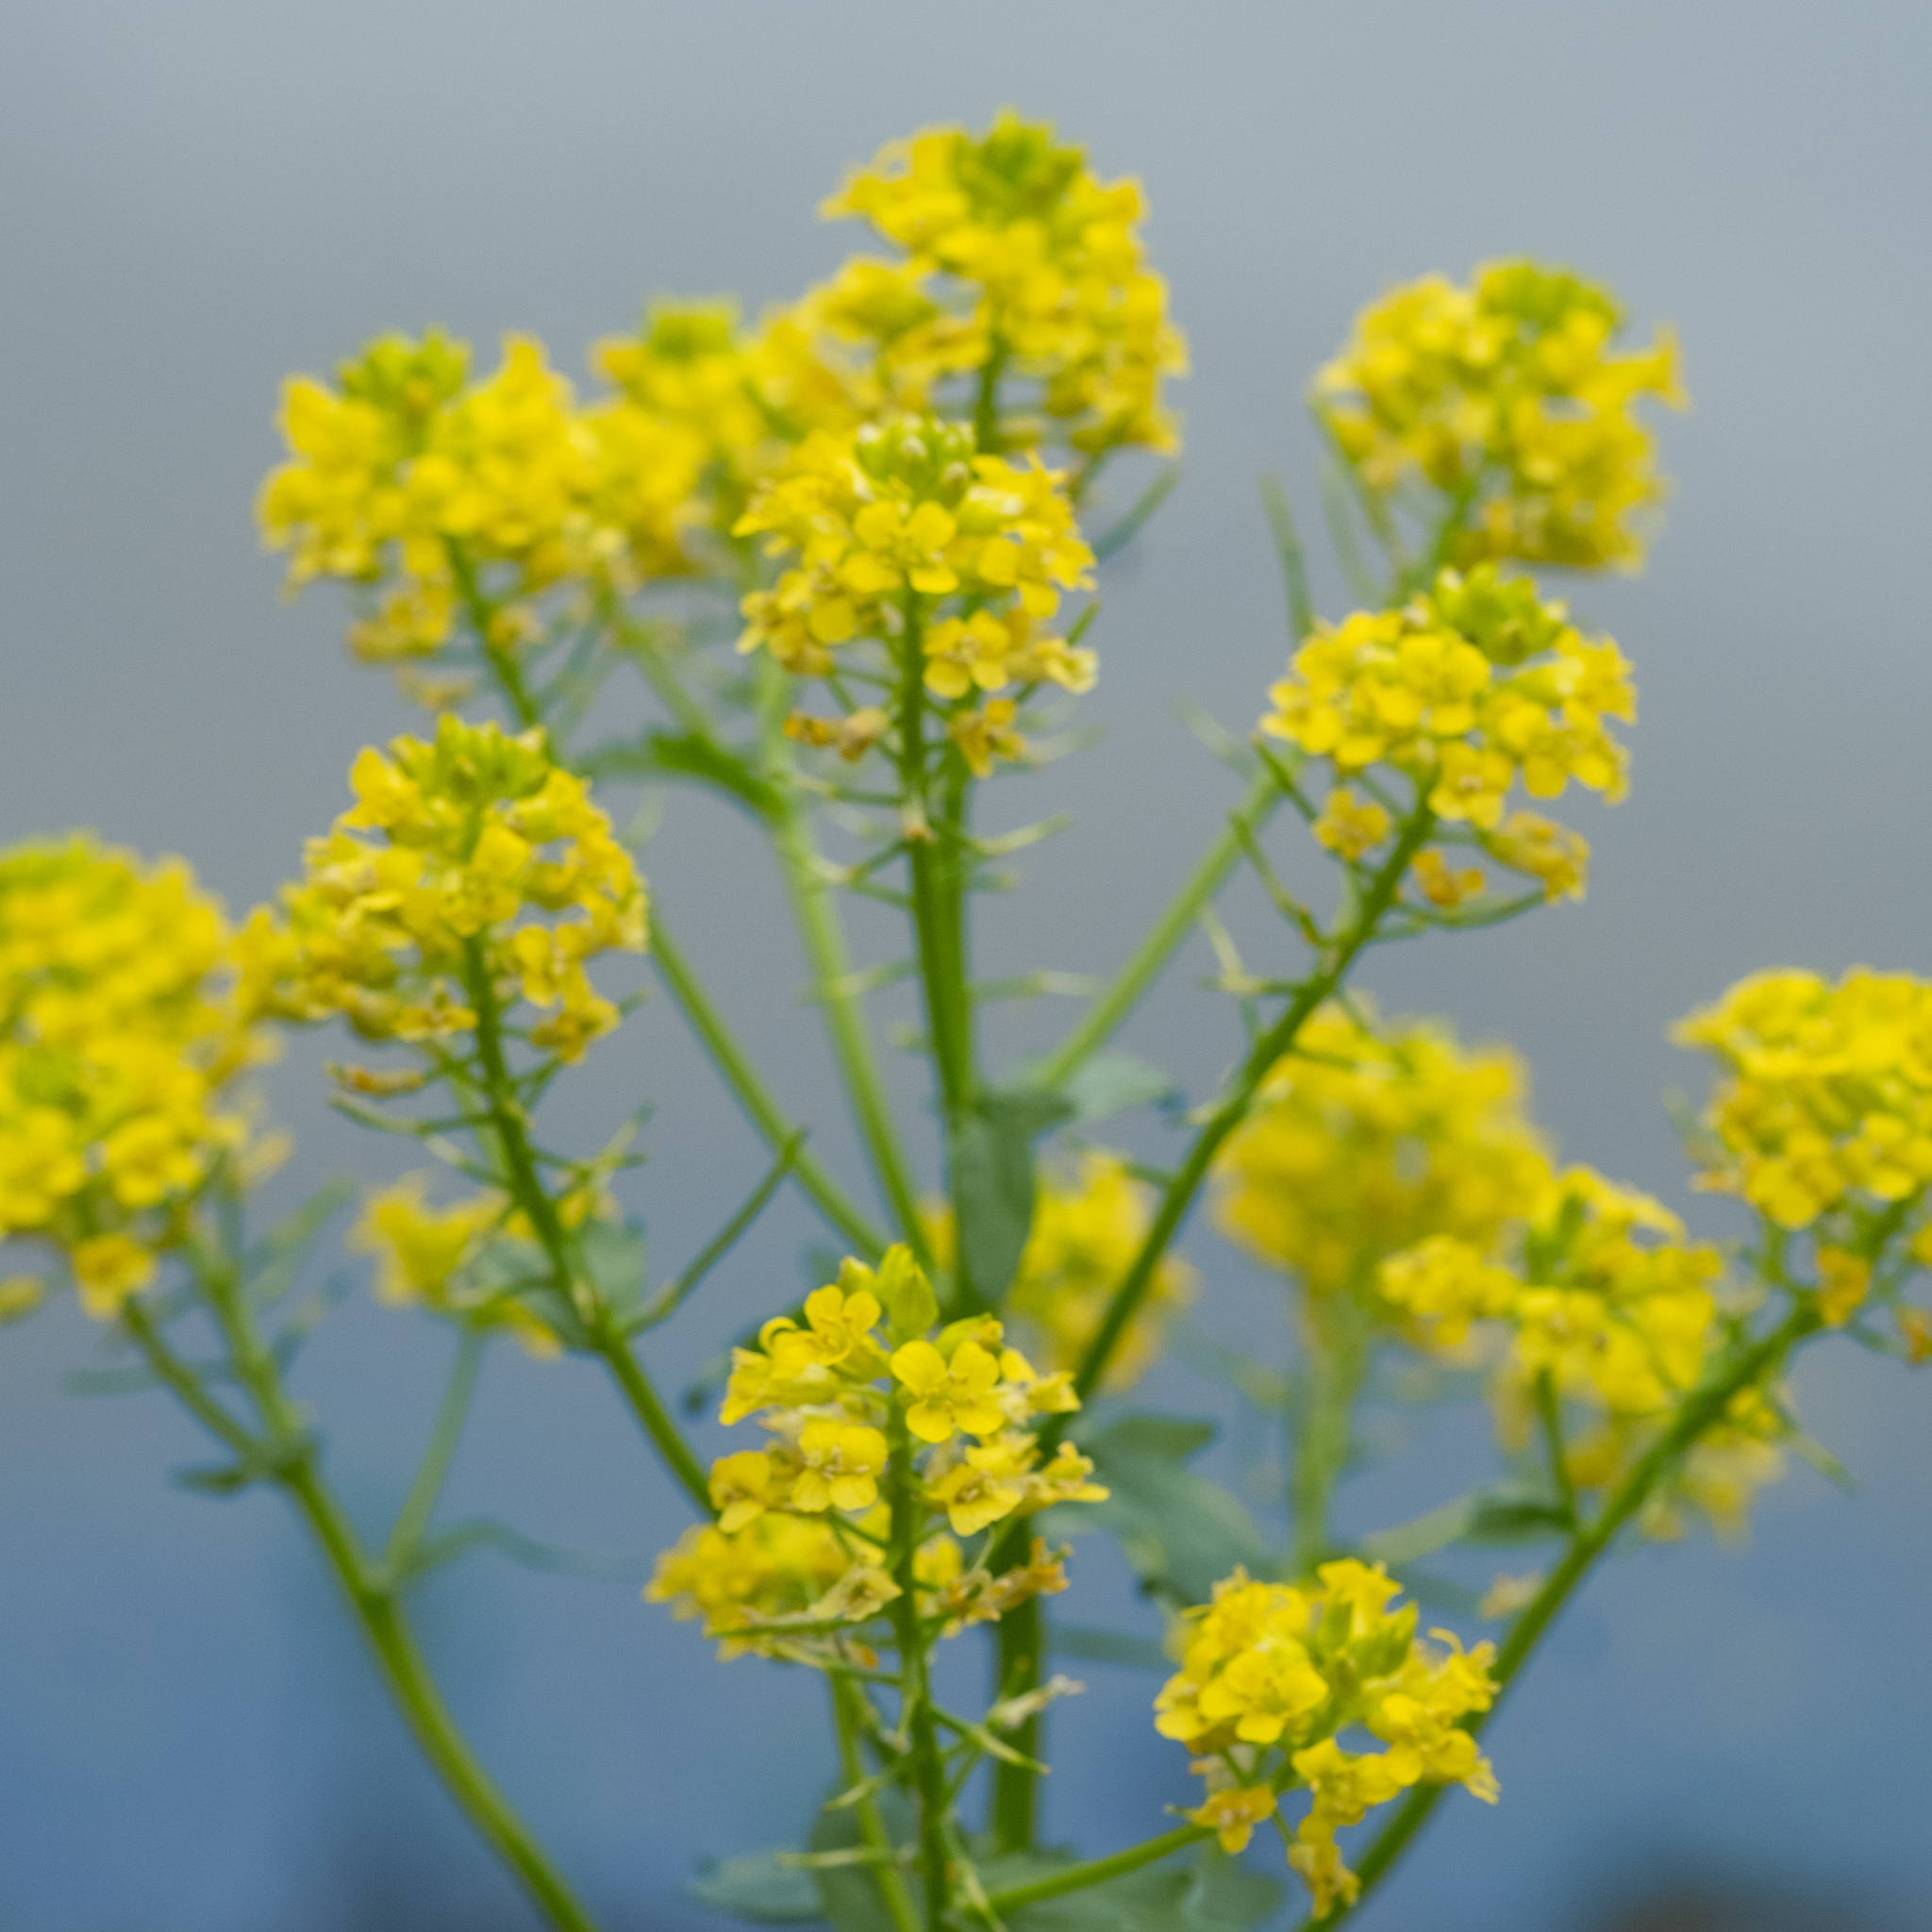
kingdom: Plantae
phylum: Tracheophyta
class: Magnoliopsida
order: Brassicales
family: Brassicaceae
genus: Barbarea
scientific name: Barbarea vulgaris
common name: Cressy-greens
